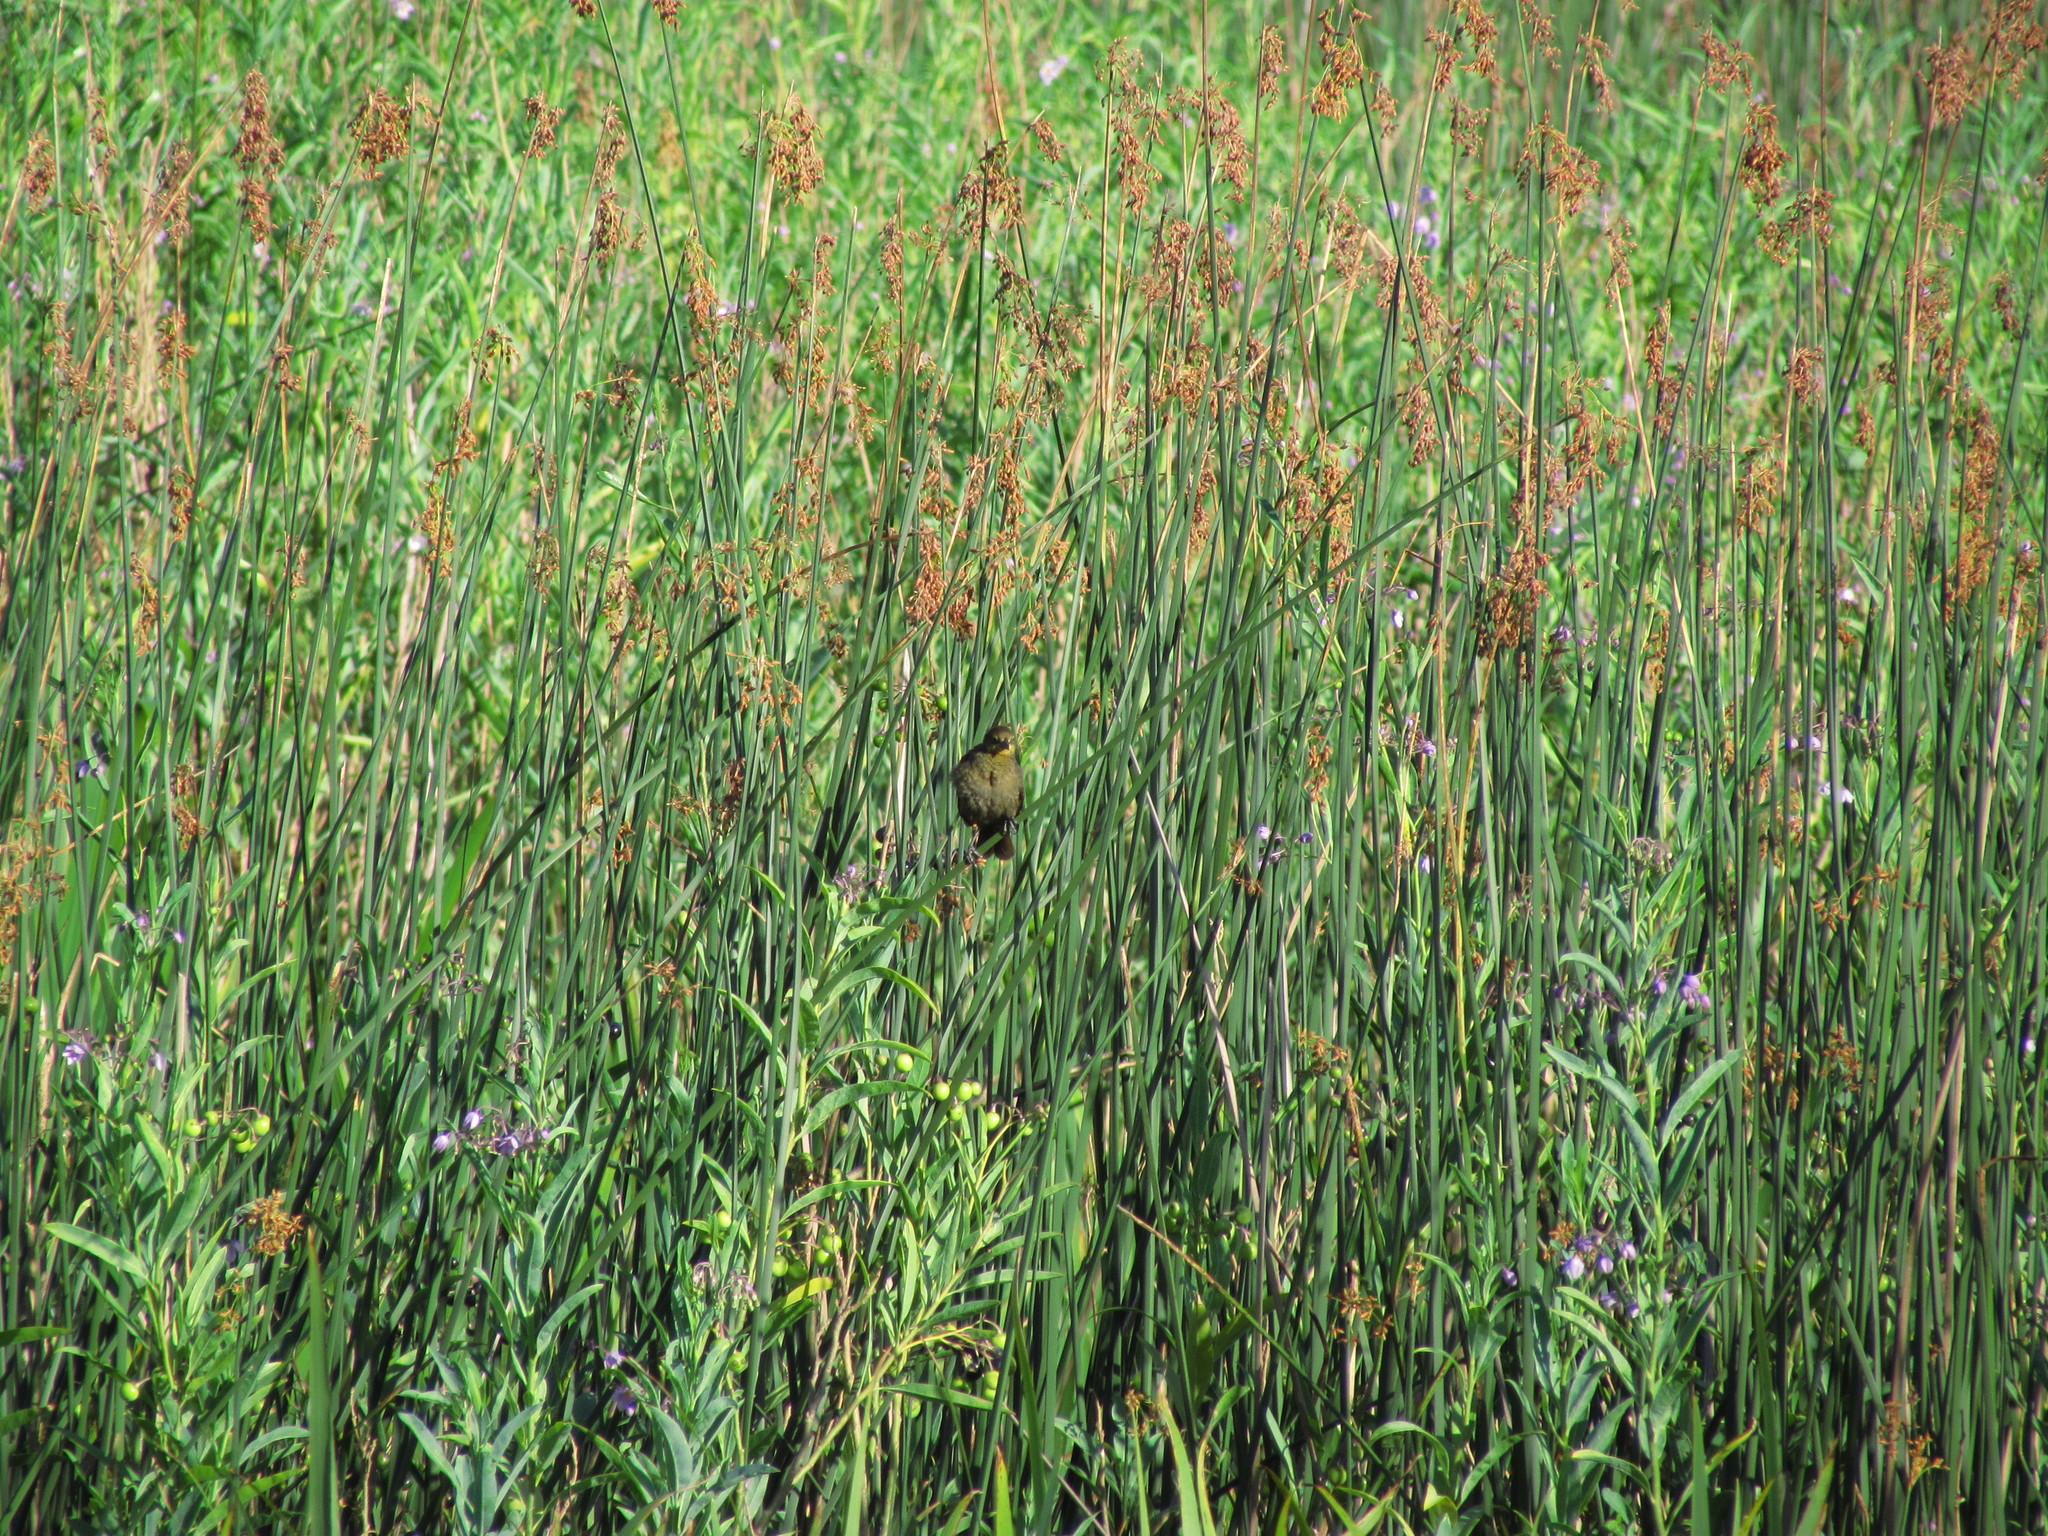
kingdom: Animalia
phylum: Chordata
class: Aves
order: Passeriformes
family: Icteridae
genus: Chrysomus
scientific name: Chrysomus ruficapillus
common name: Chestnut-capped blackbird
